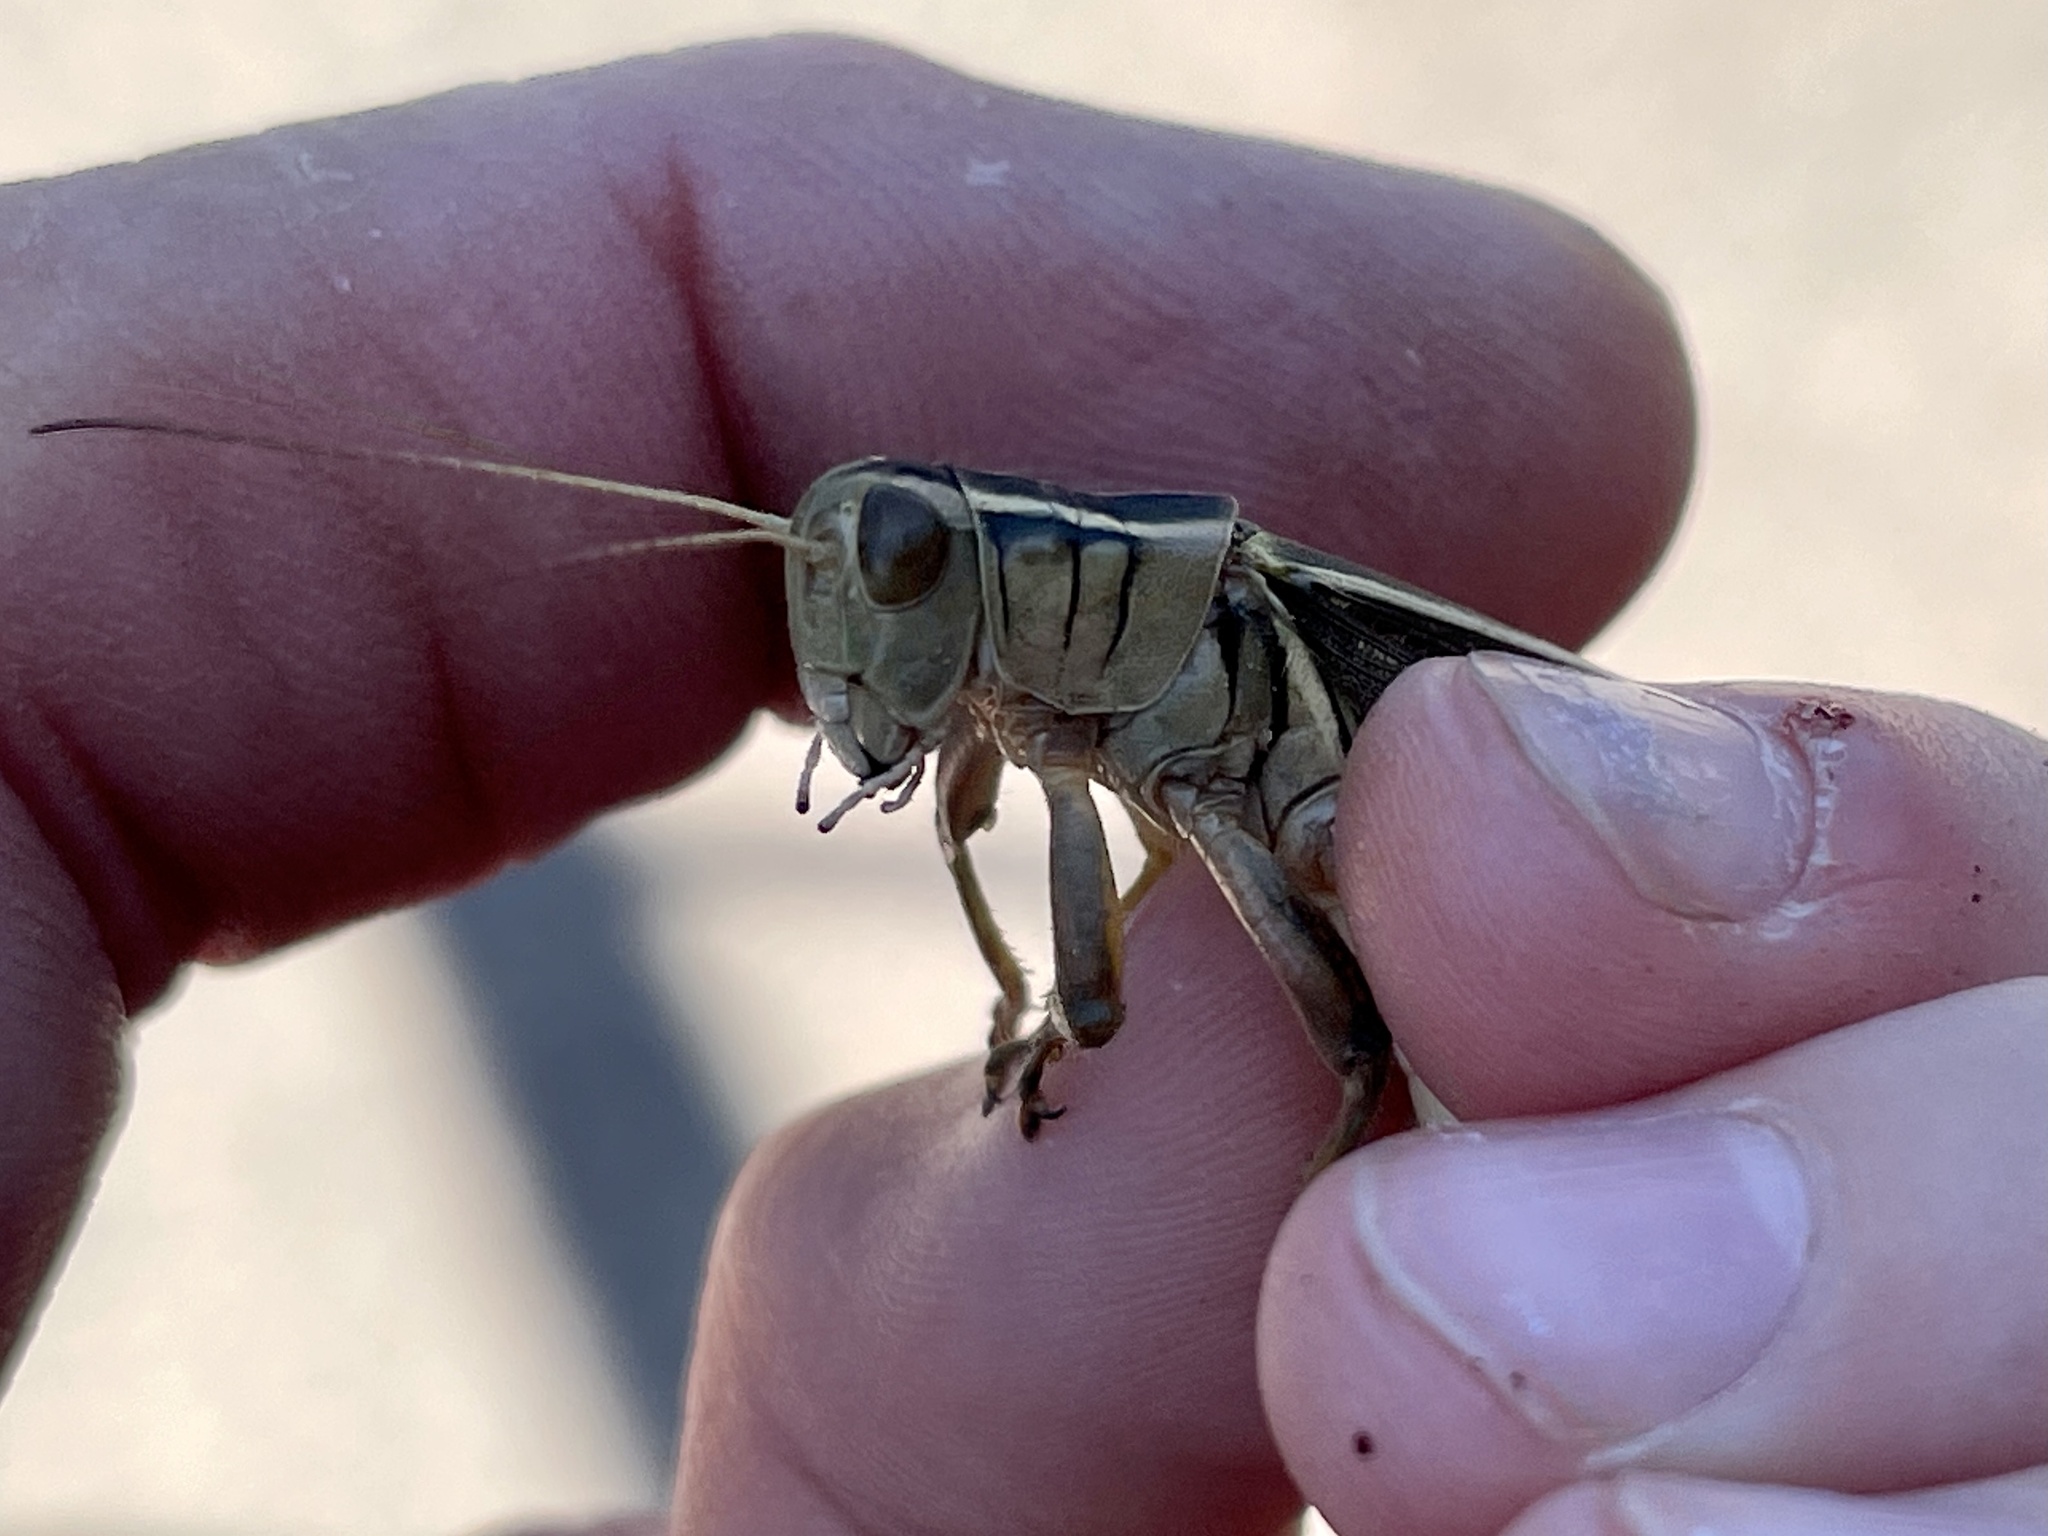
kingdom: Animalia
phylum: Arthropoda
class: Insecta
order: Orthoptera
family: Acrididae
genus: Melanoplus
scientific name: Melanoplus bivittatus
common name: Two-striped grasshopper
